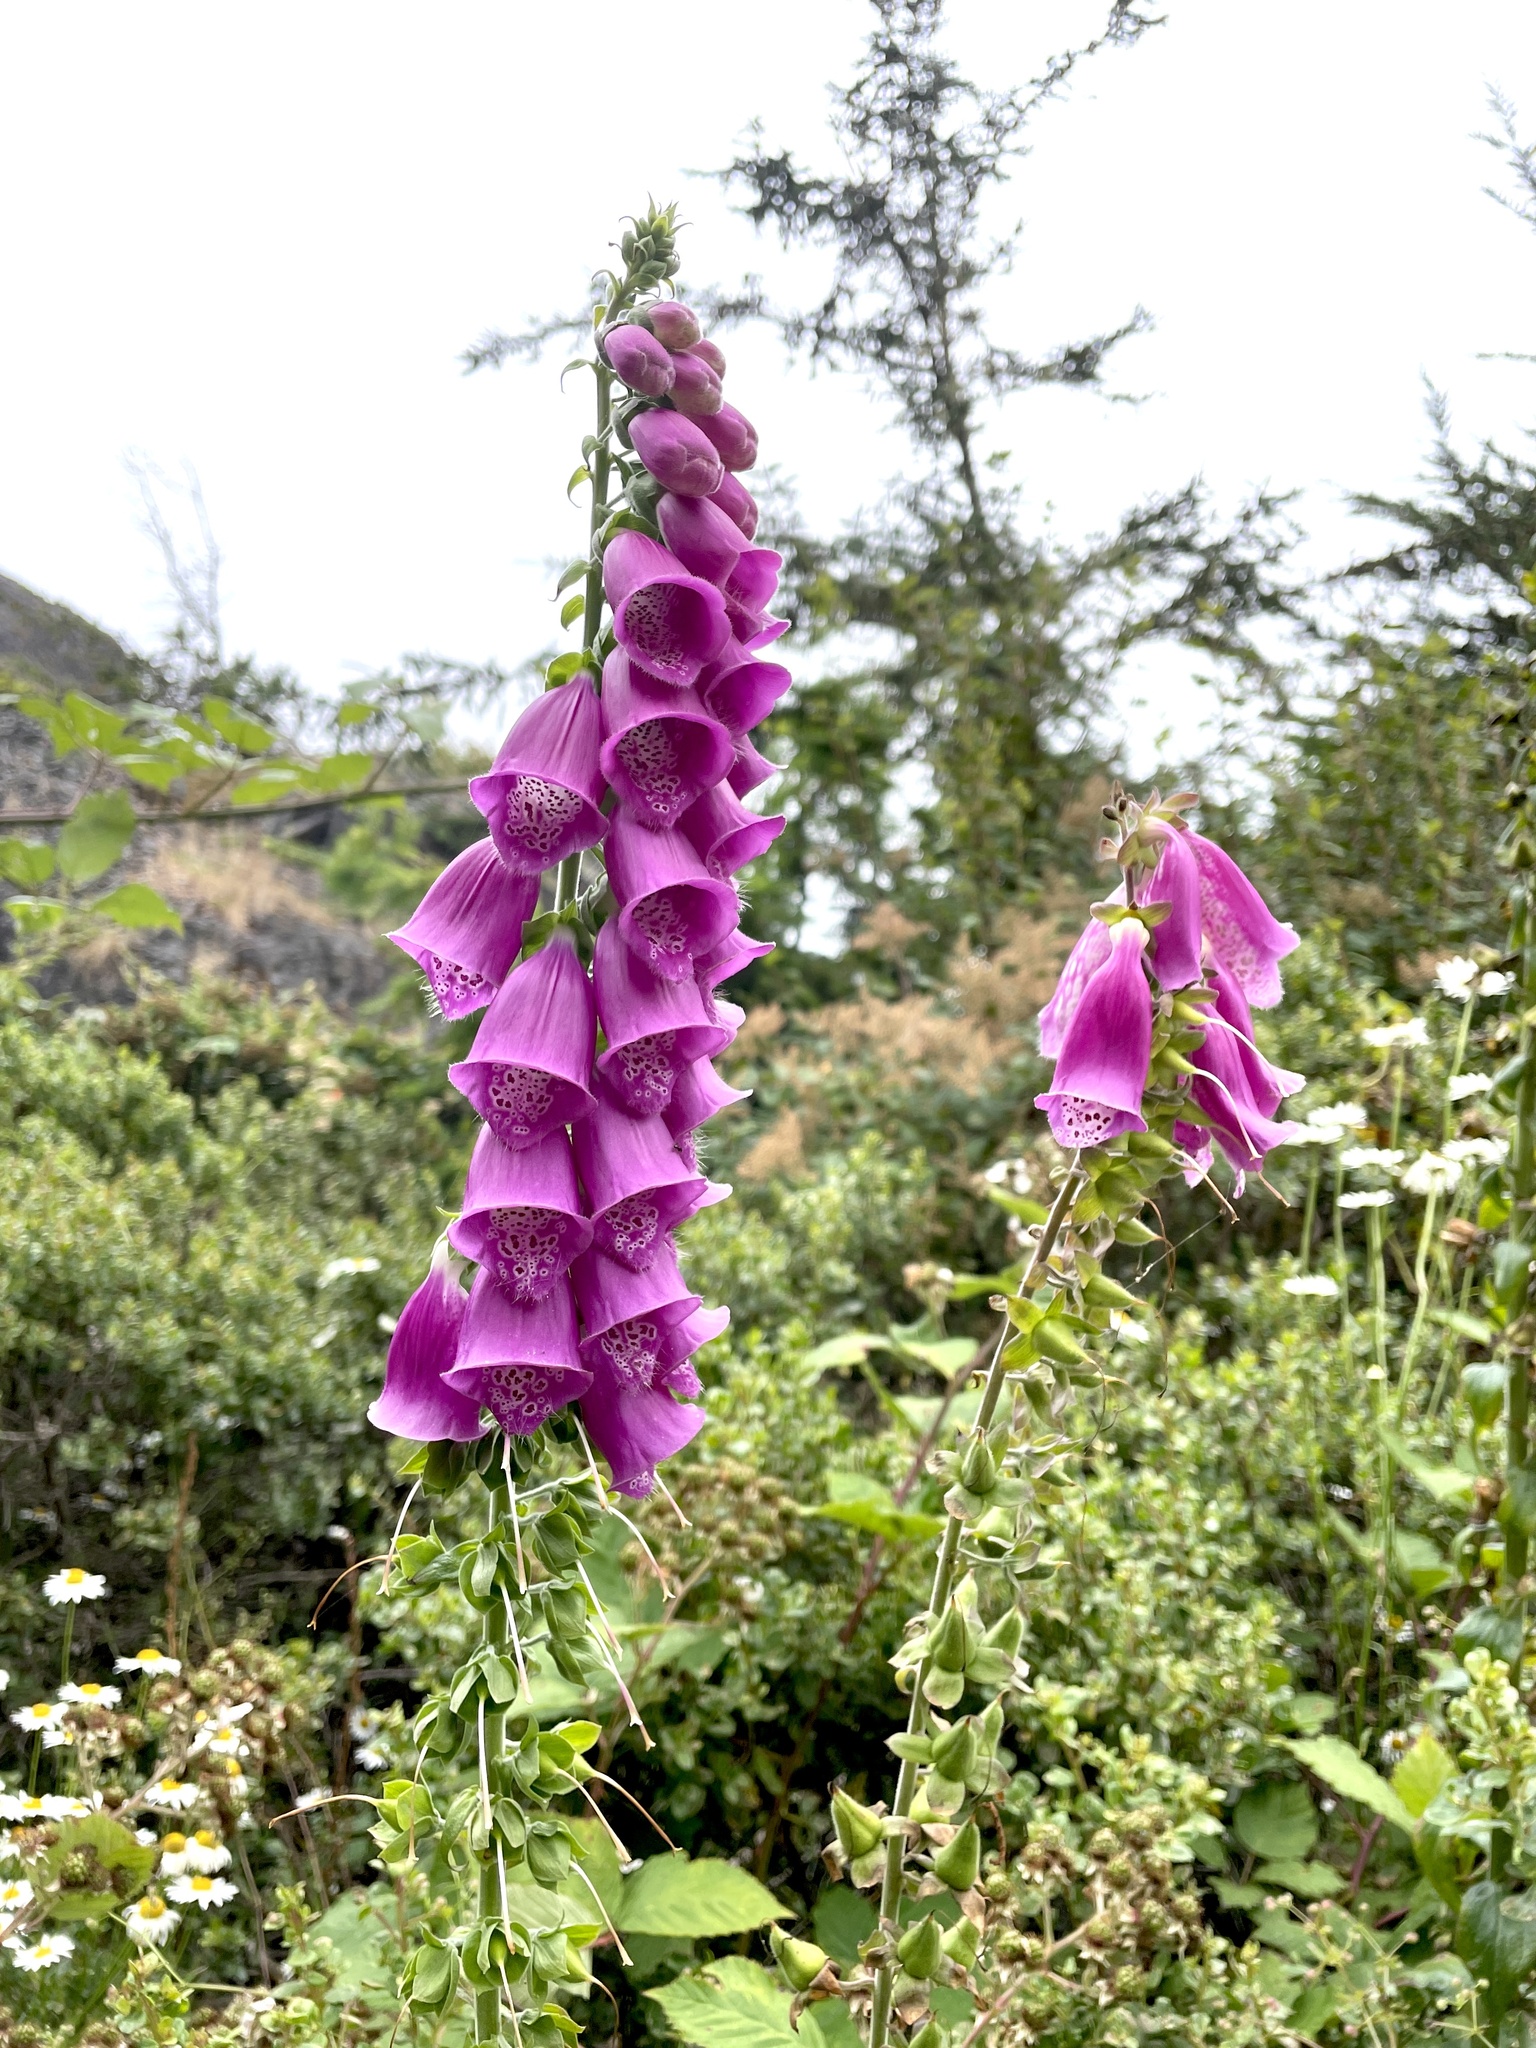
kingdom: Plantae
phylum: Tracheophyta
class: Magnoliopsida
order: Lamiales
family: Plantaginaceae
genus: Digitalis
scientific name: Digitalis purpurea
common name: Foxglove
